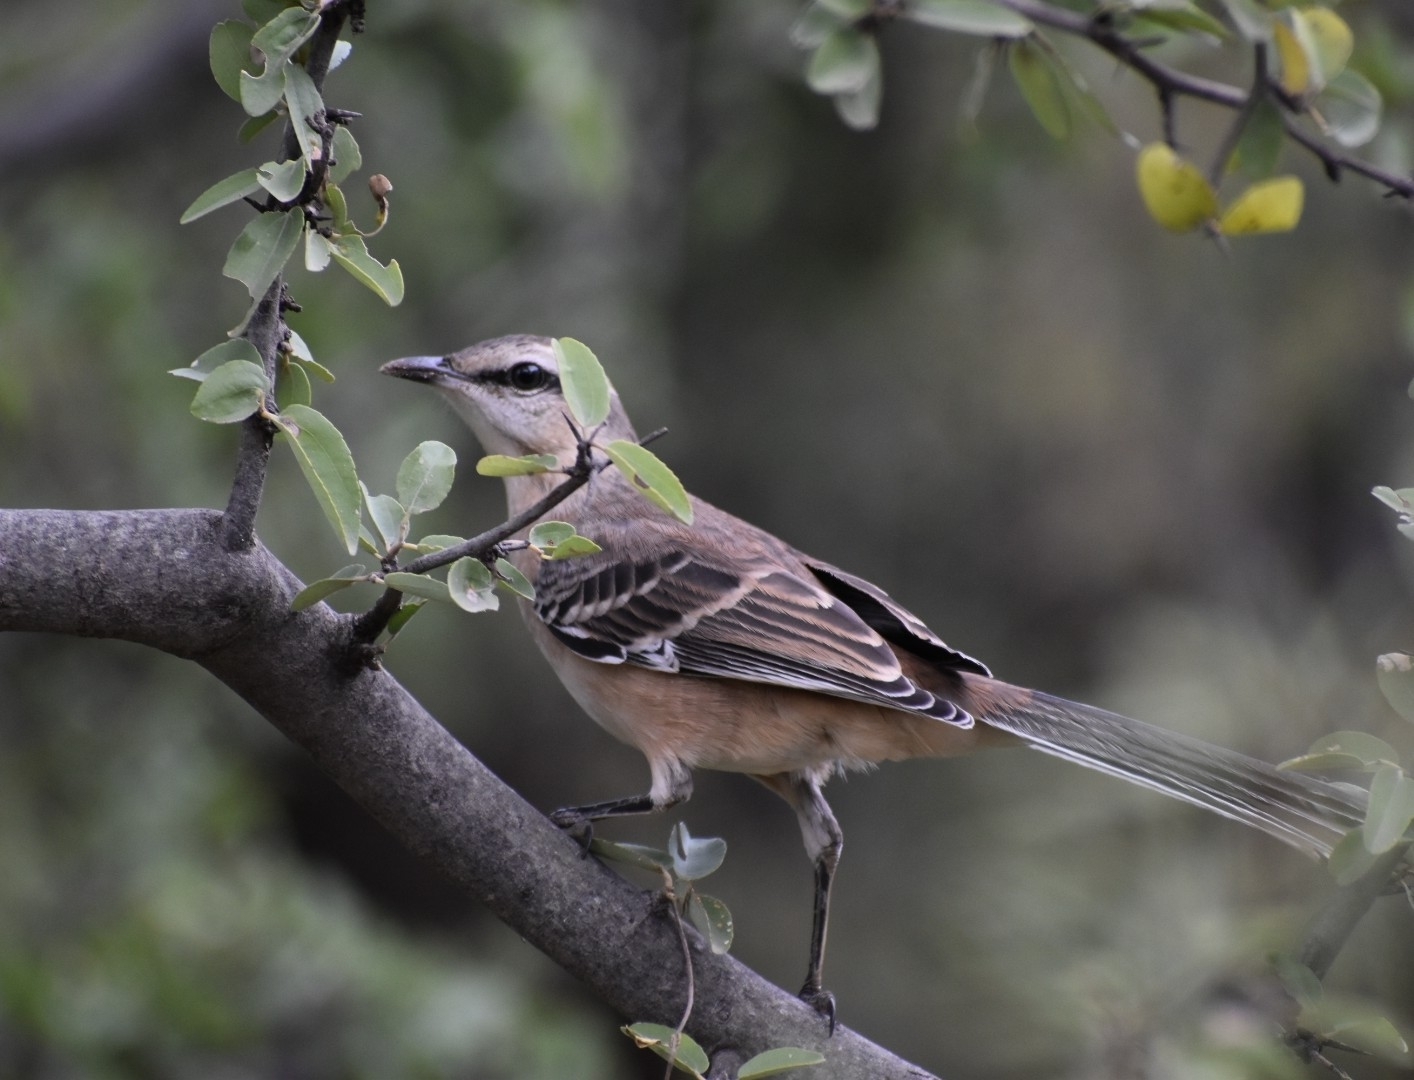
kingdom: Animalia
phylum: Chordata
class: Aves
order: Passeriformes
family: Mimidae
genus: Mimus
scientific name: Mimus saturninus
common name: Chalk-browed mockingbird
